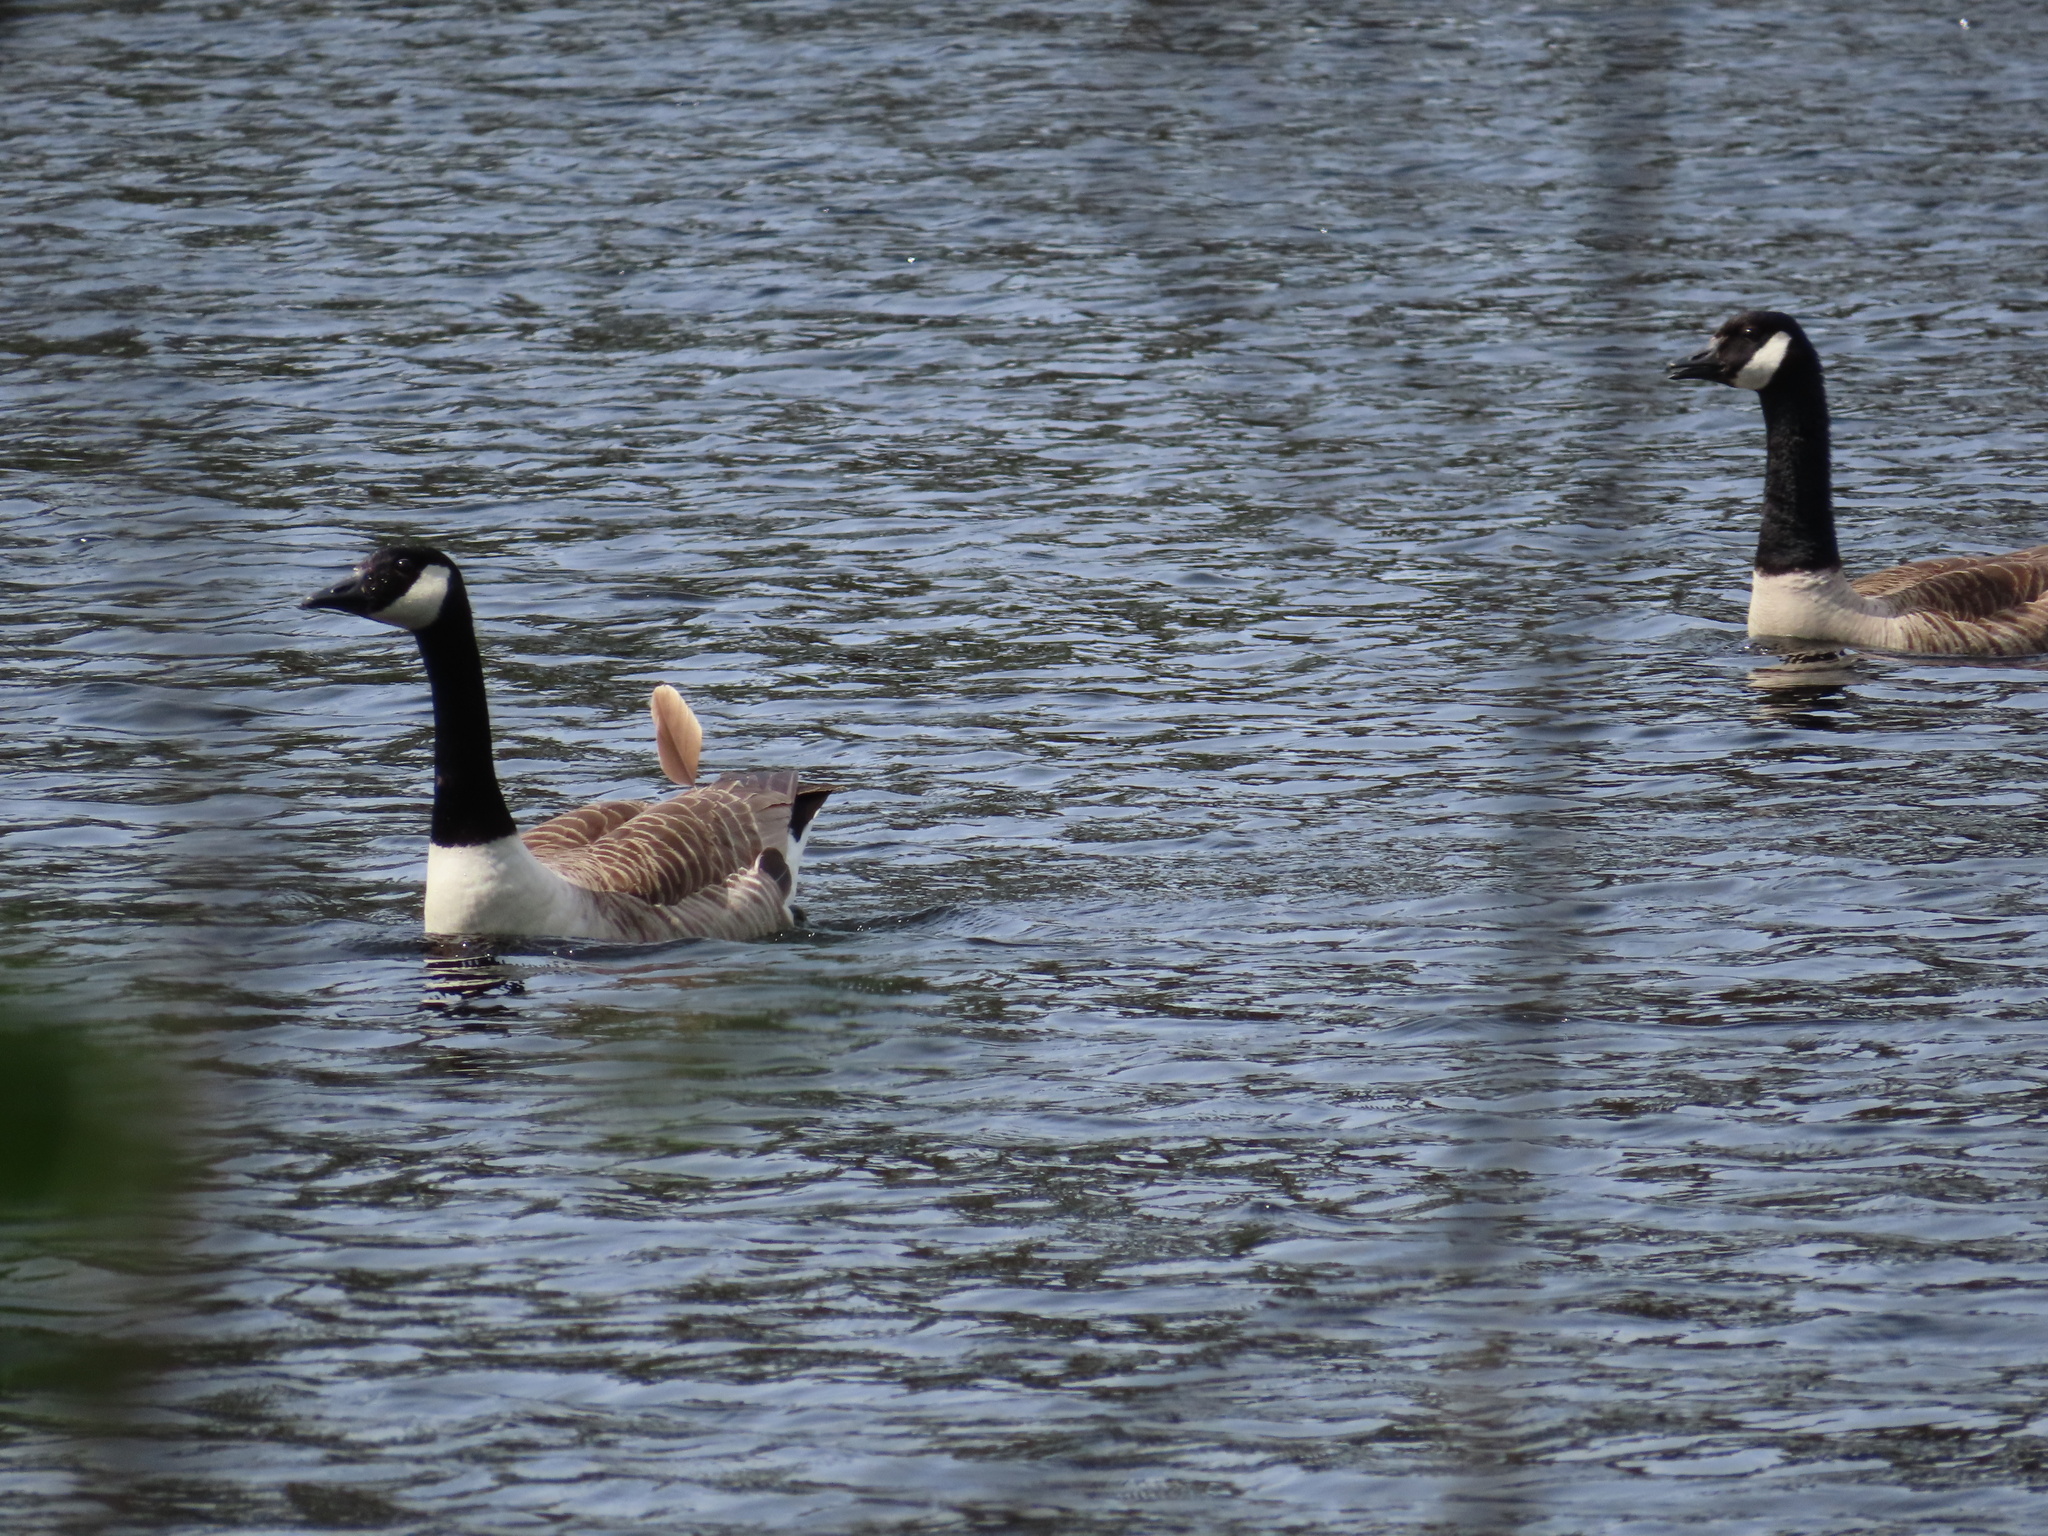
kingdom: Animalia
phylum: Chordata
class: Aves
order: Anseriformes
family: Anatidae
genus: Branta
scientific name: Branta canadensis
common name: Canada goose
